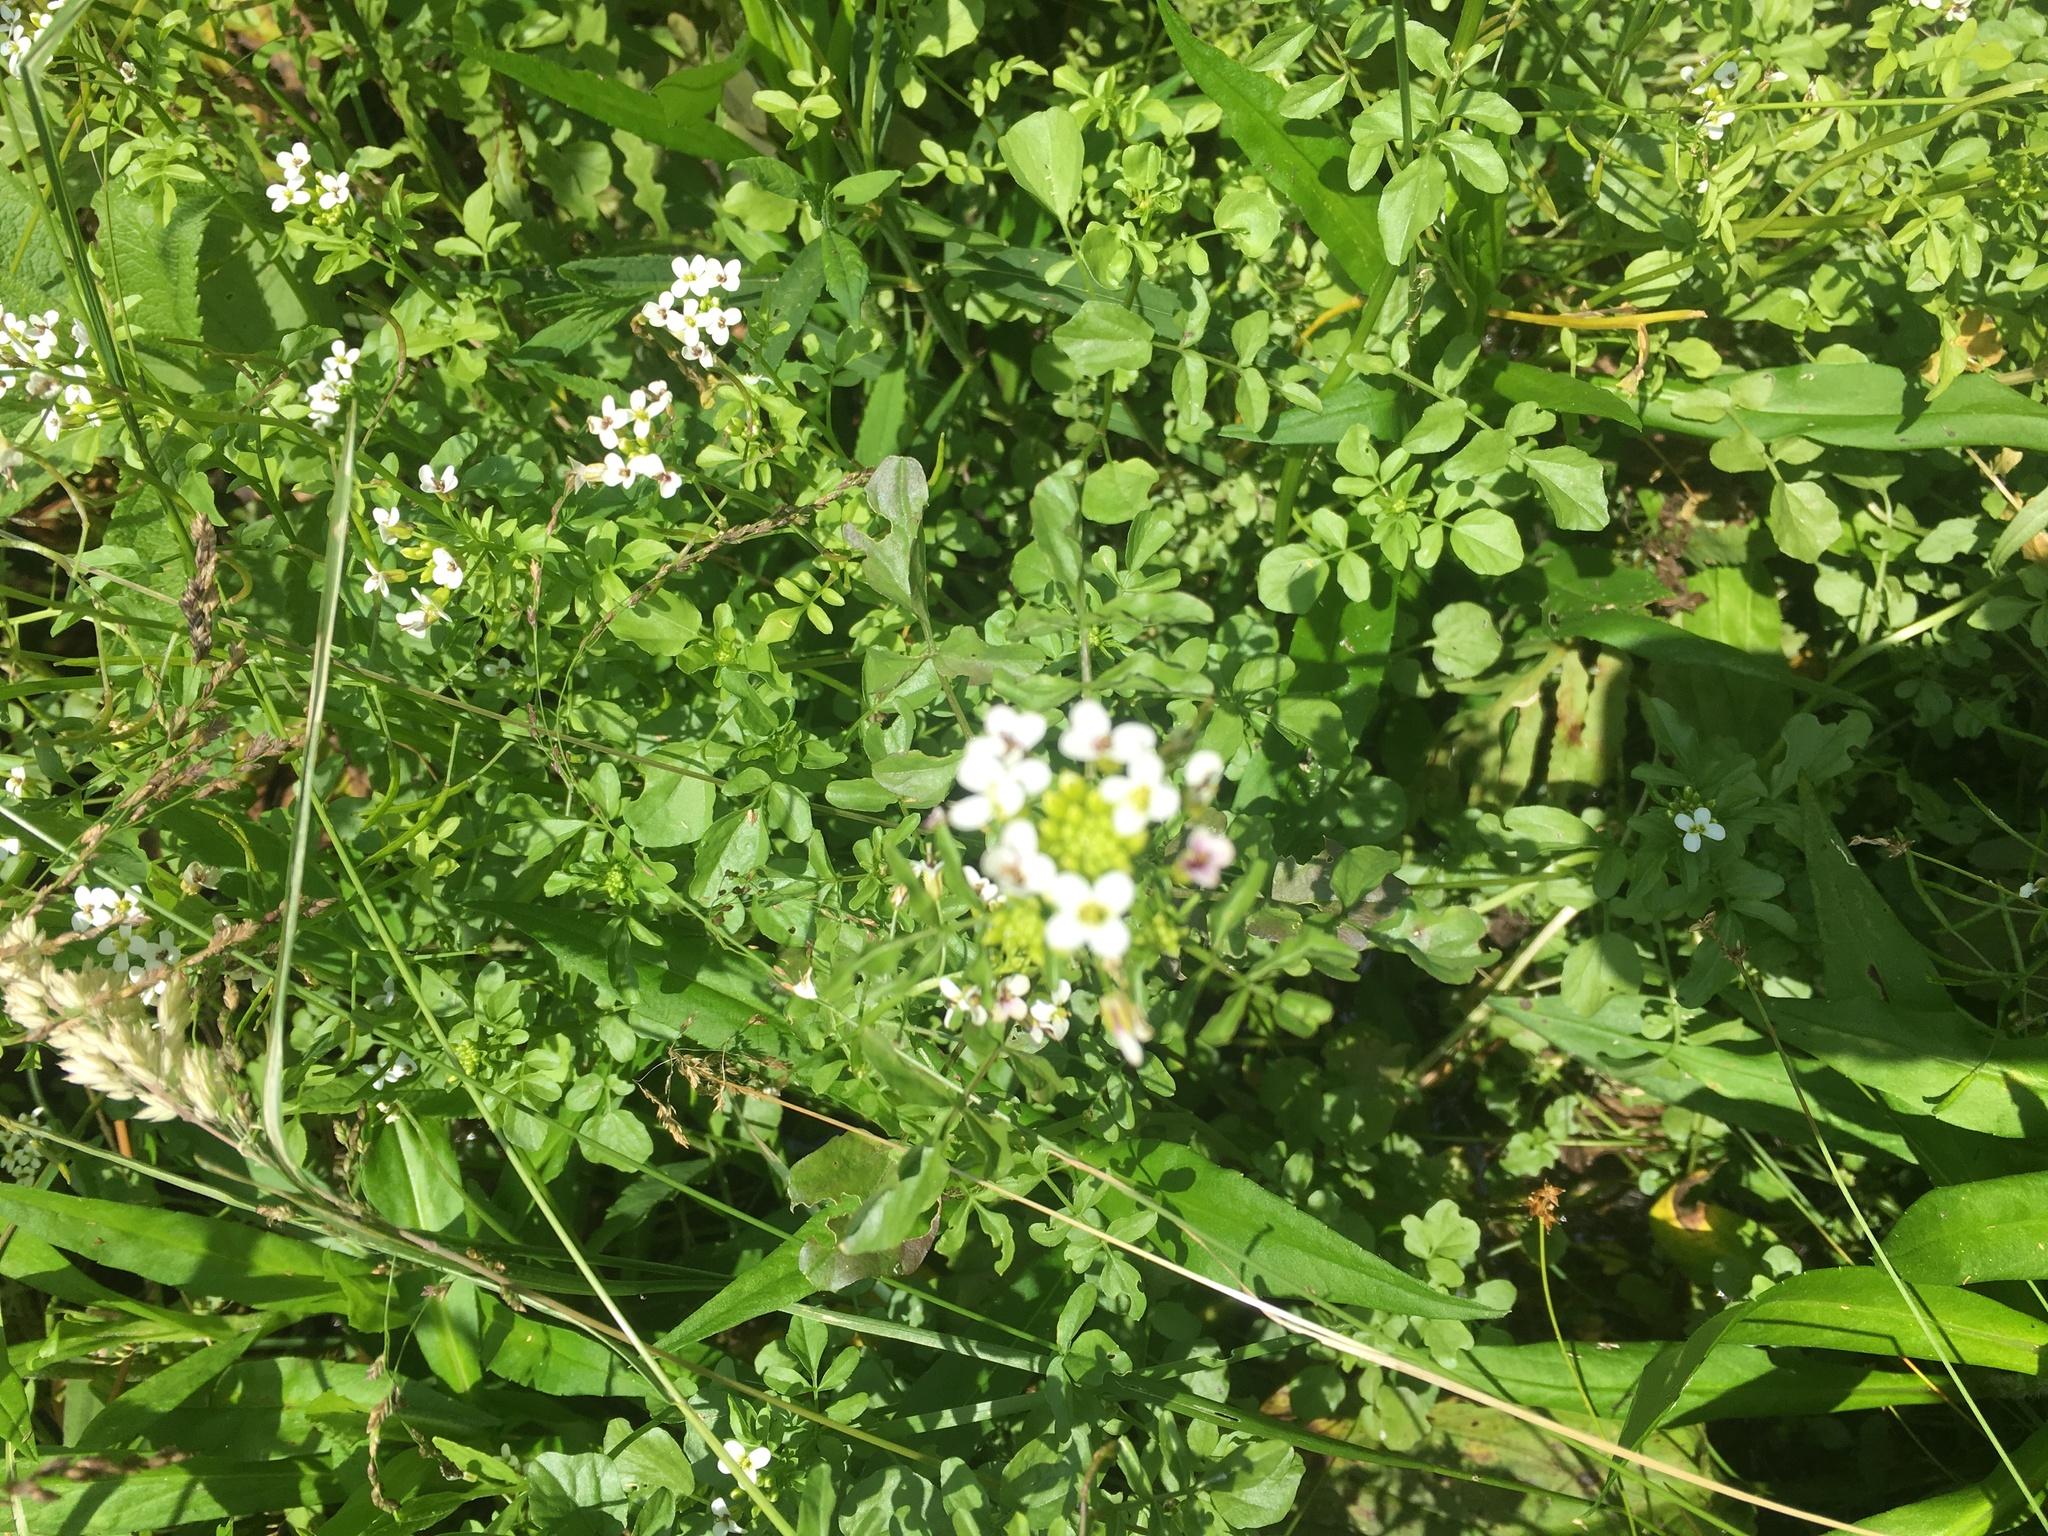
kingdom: Plantae
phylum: Tracheophyta
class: Magnoliopsida
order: Brassicales
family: Brassicaceae
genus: Cardamine
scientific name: Cardamine pratensis
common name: Cuckoo flower
